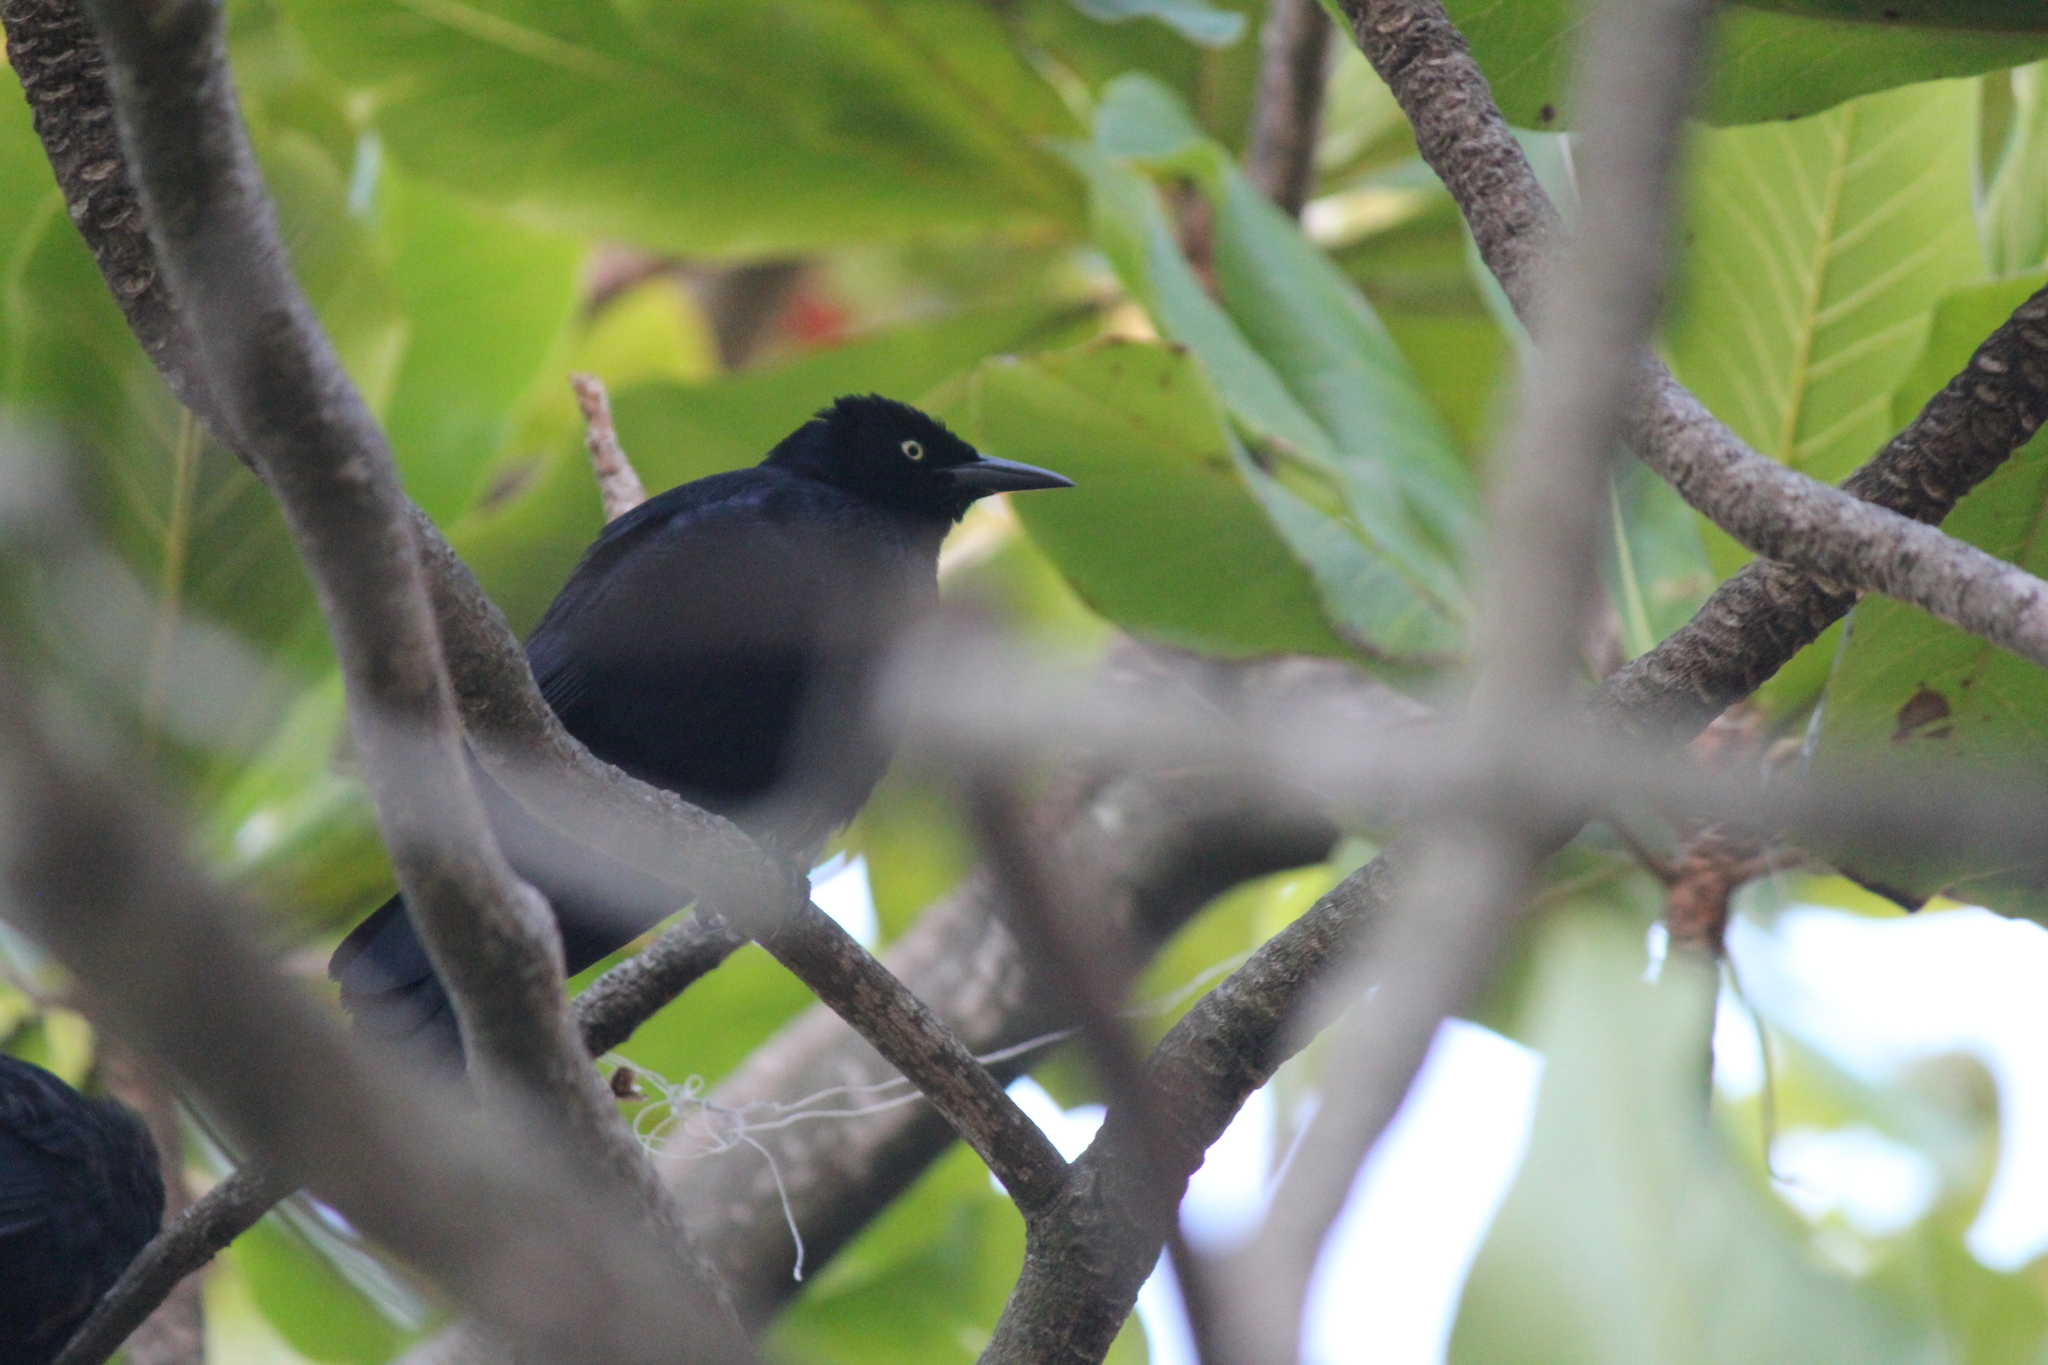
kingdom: Animalia
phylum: Chordata
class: Aves
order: Passeriformes
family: Icteridae
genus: Quiscalus
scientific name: Quiscalus niger
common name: Greater antillean grackle
